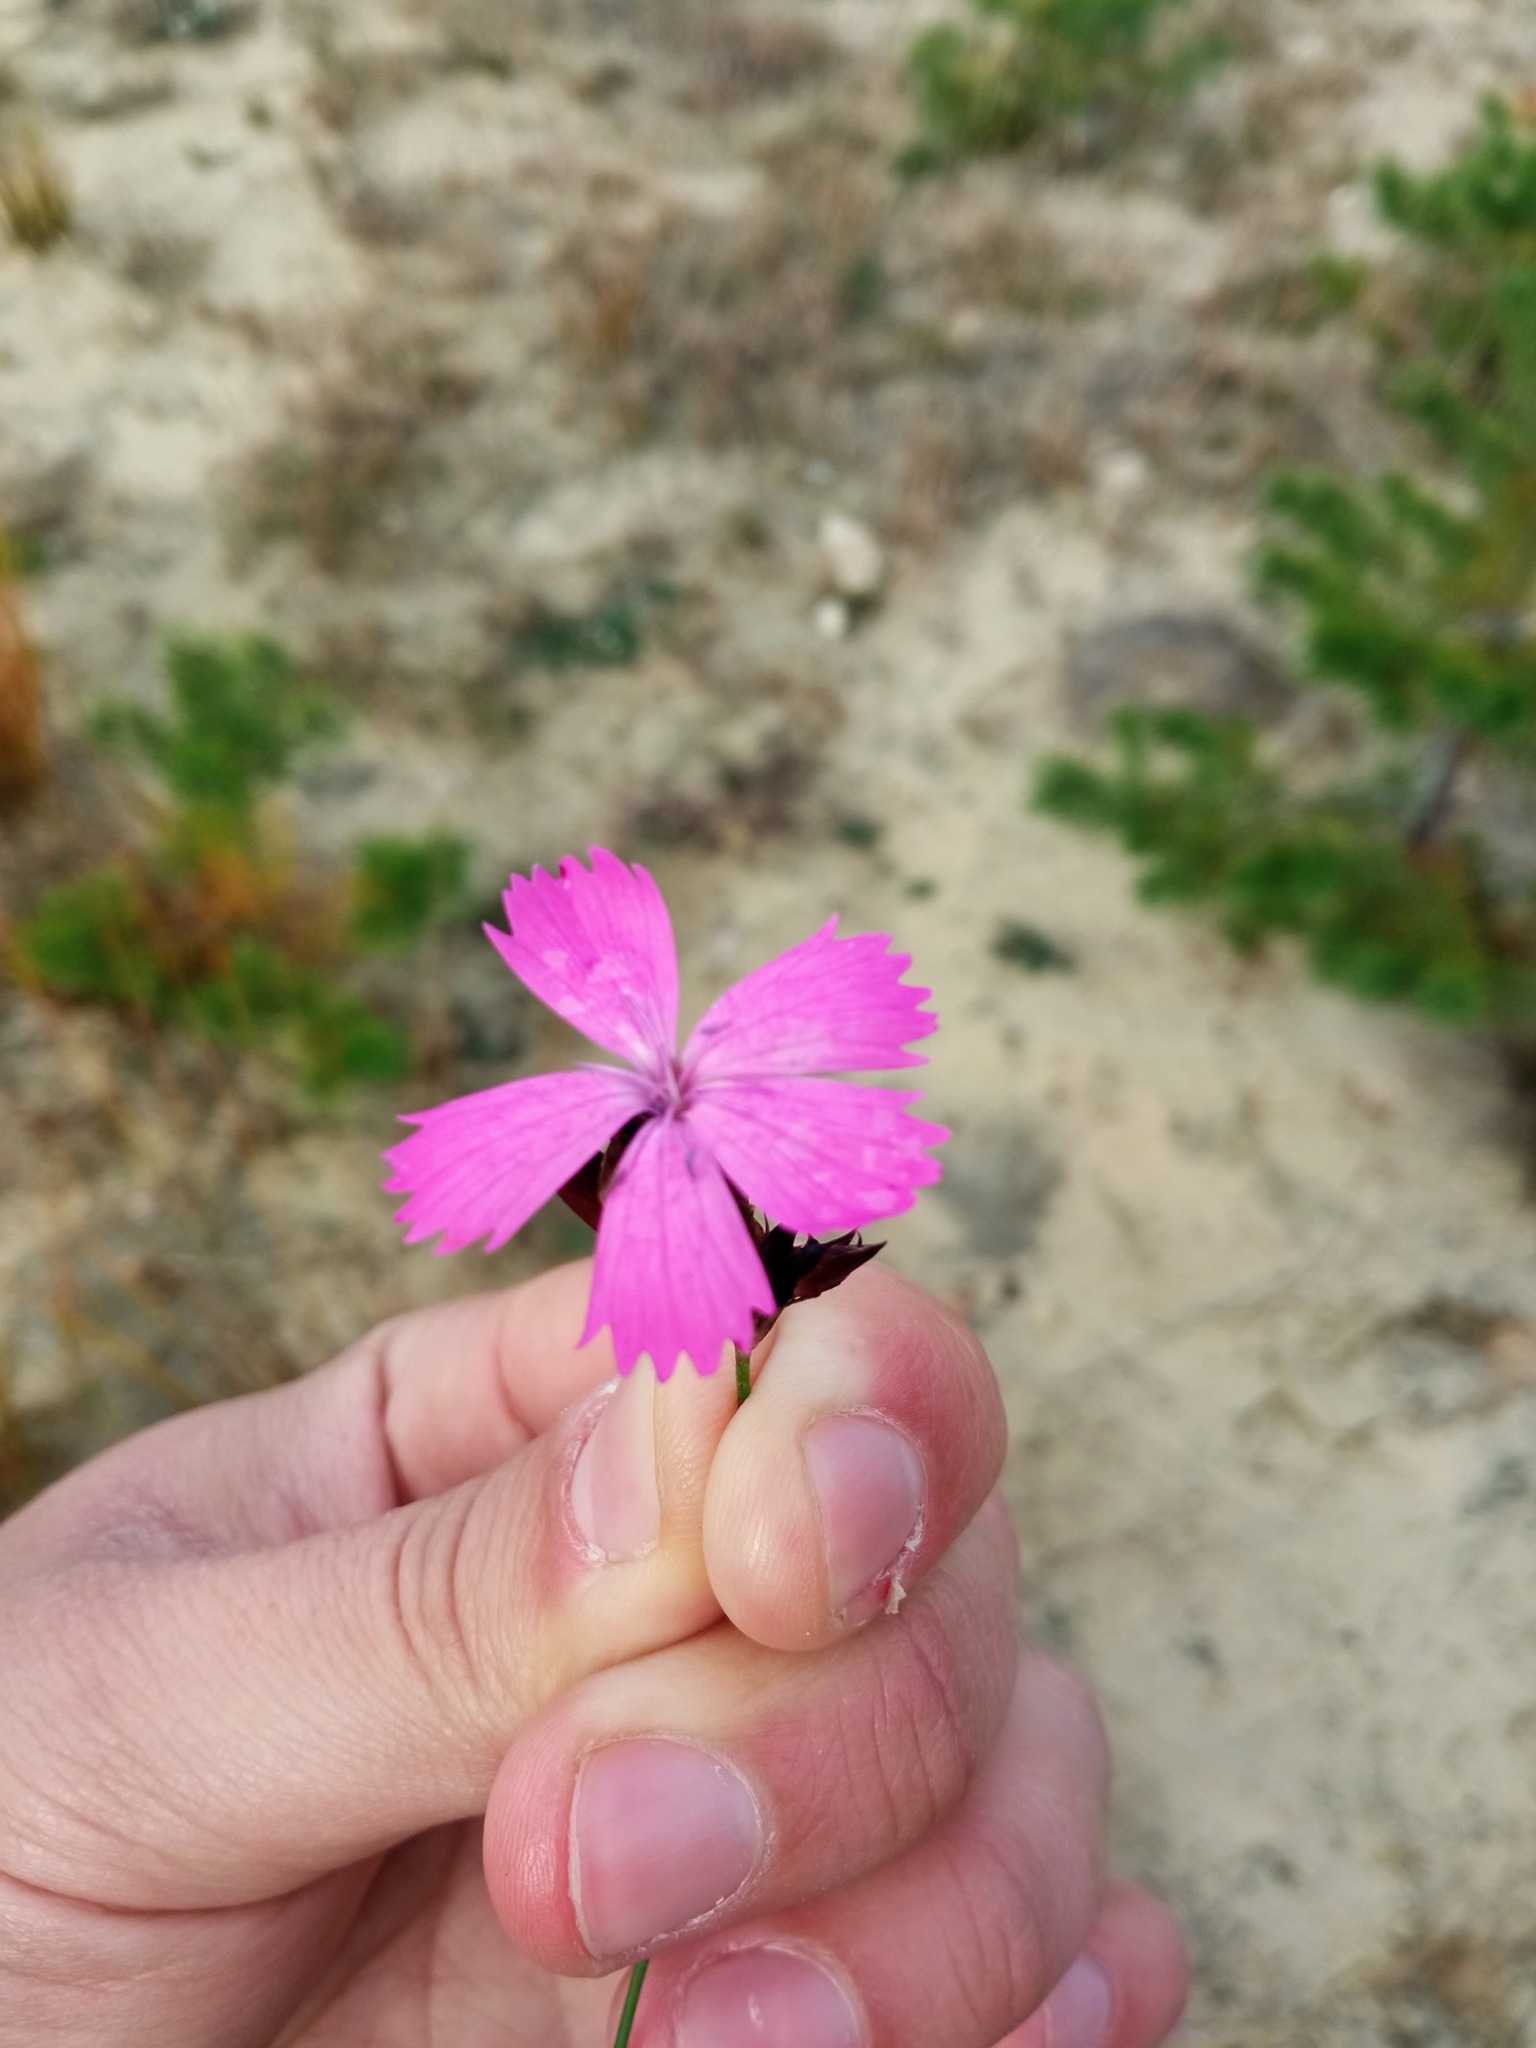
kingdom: Plantae
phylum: Tracheophyta
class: Magnoliopsida
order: Caryophyllales
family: Caryophyllaceae
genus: Dianthus
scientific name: Dianthus carthusianorum
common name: Carthusian pink
